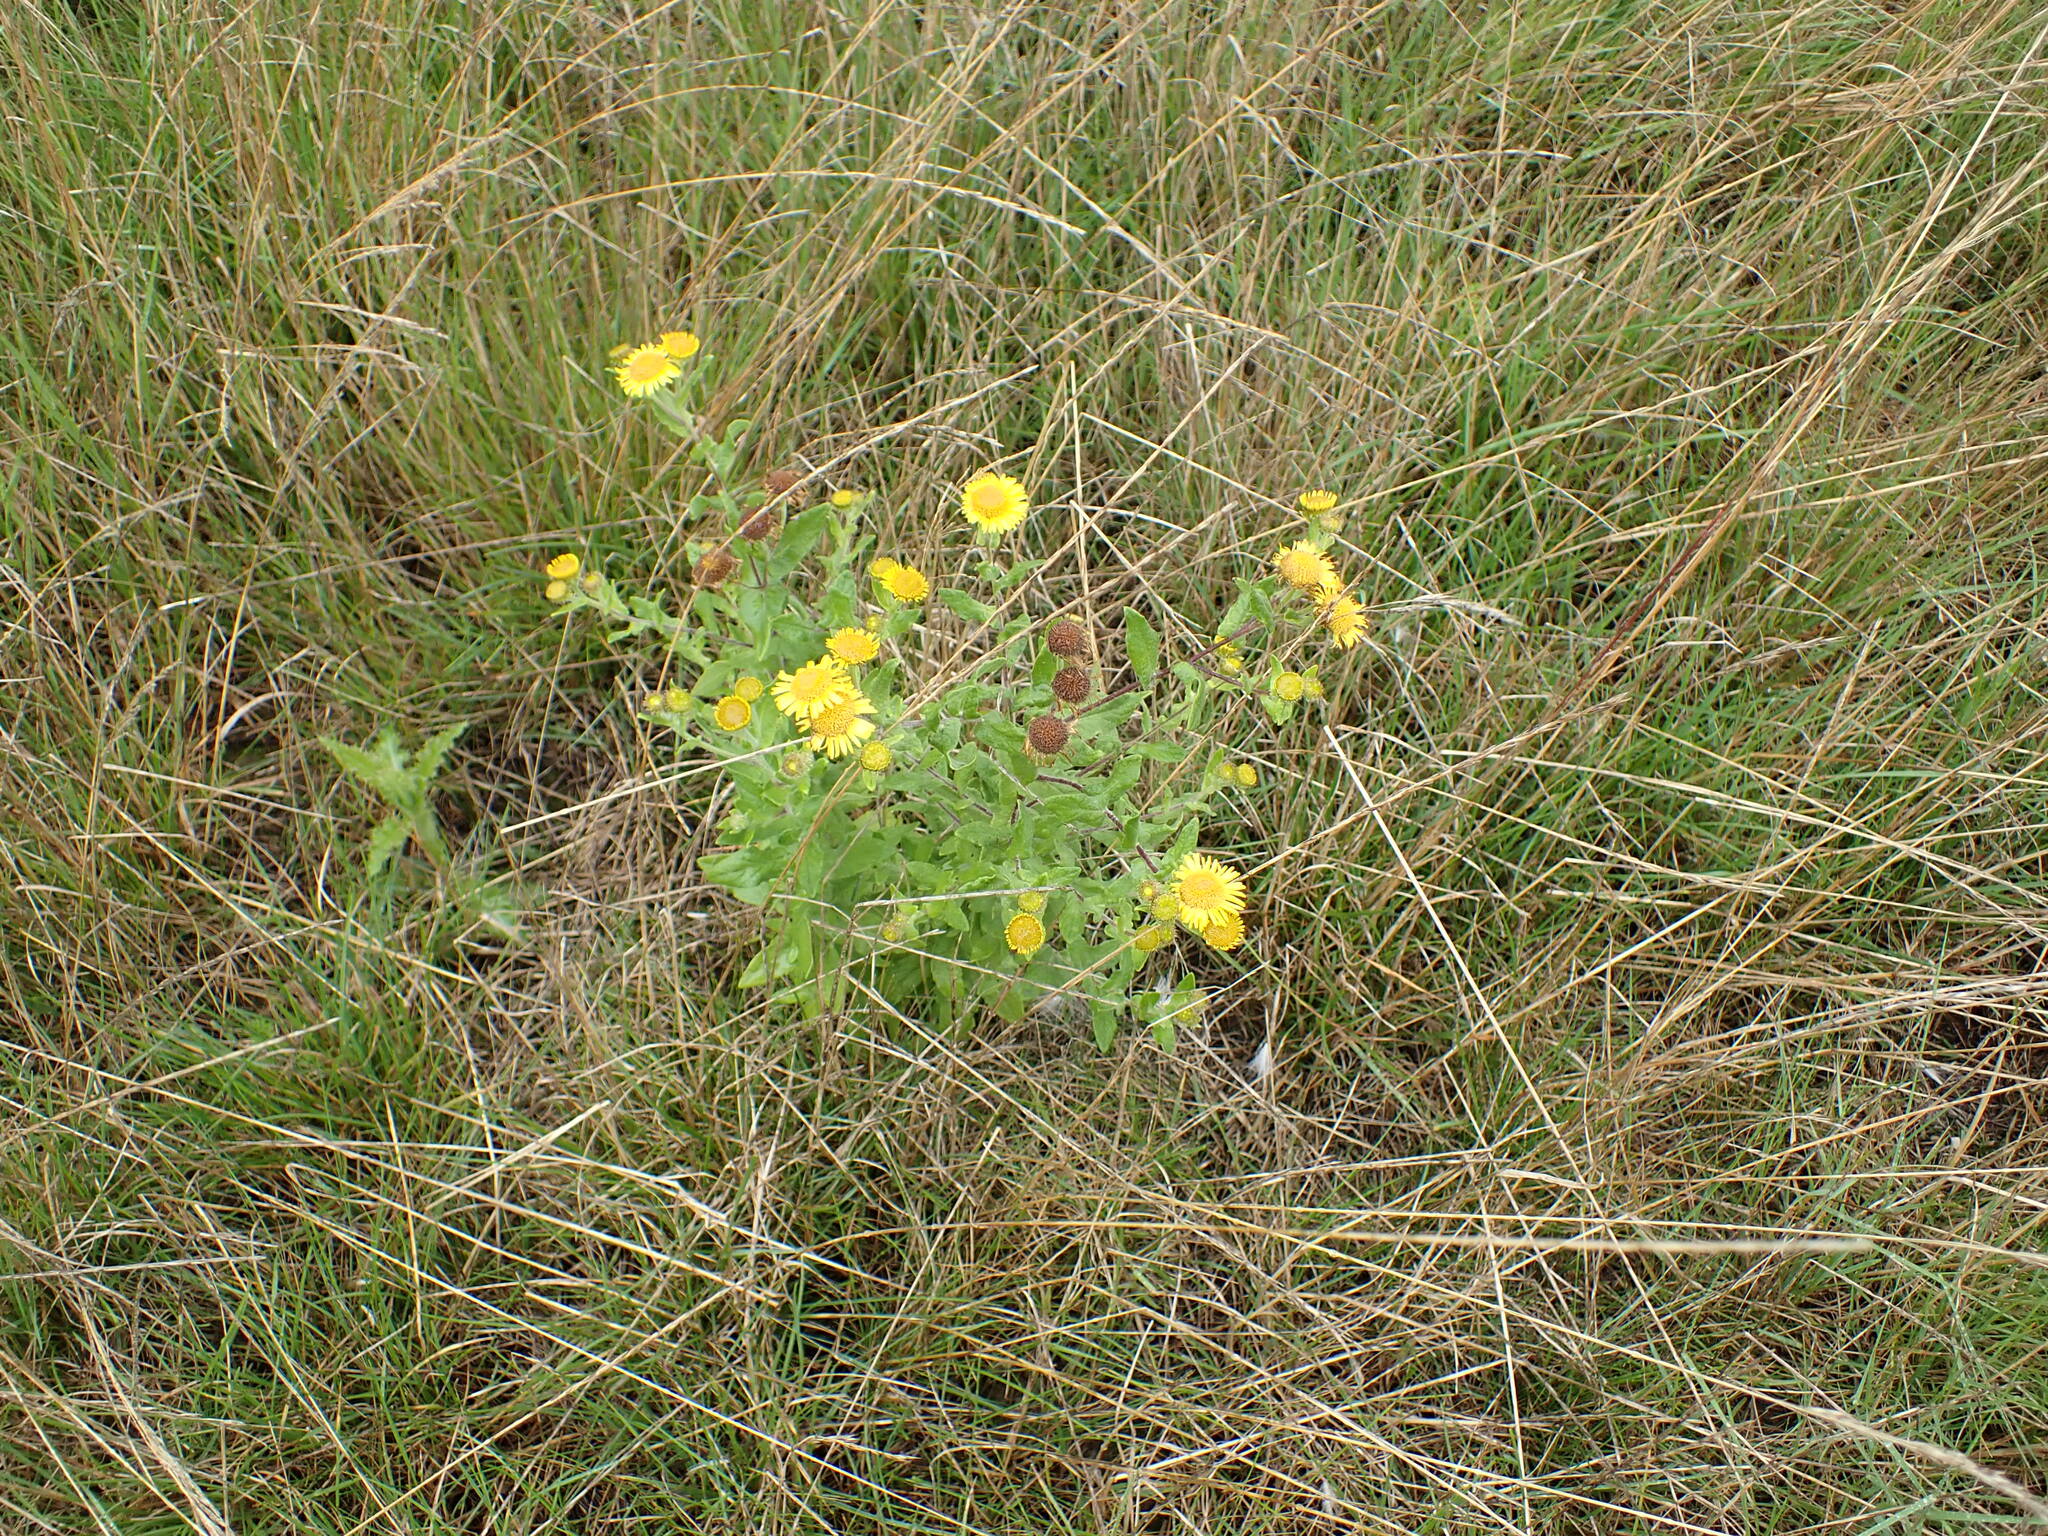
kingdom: Plantae
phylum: Tracheophyta
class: Magnoliopsida
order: Asterales
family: Asteraceae
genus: Pulicaria
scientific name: Pulicaria dysenterica
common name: Common fleabane
